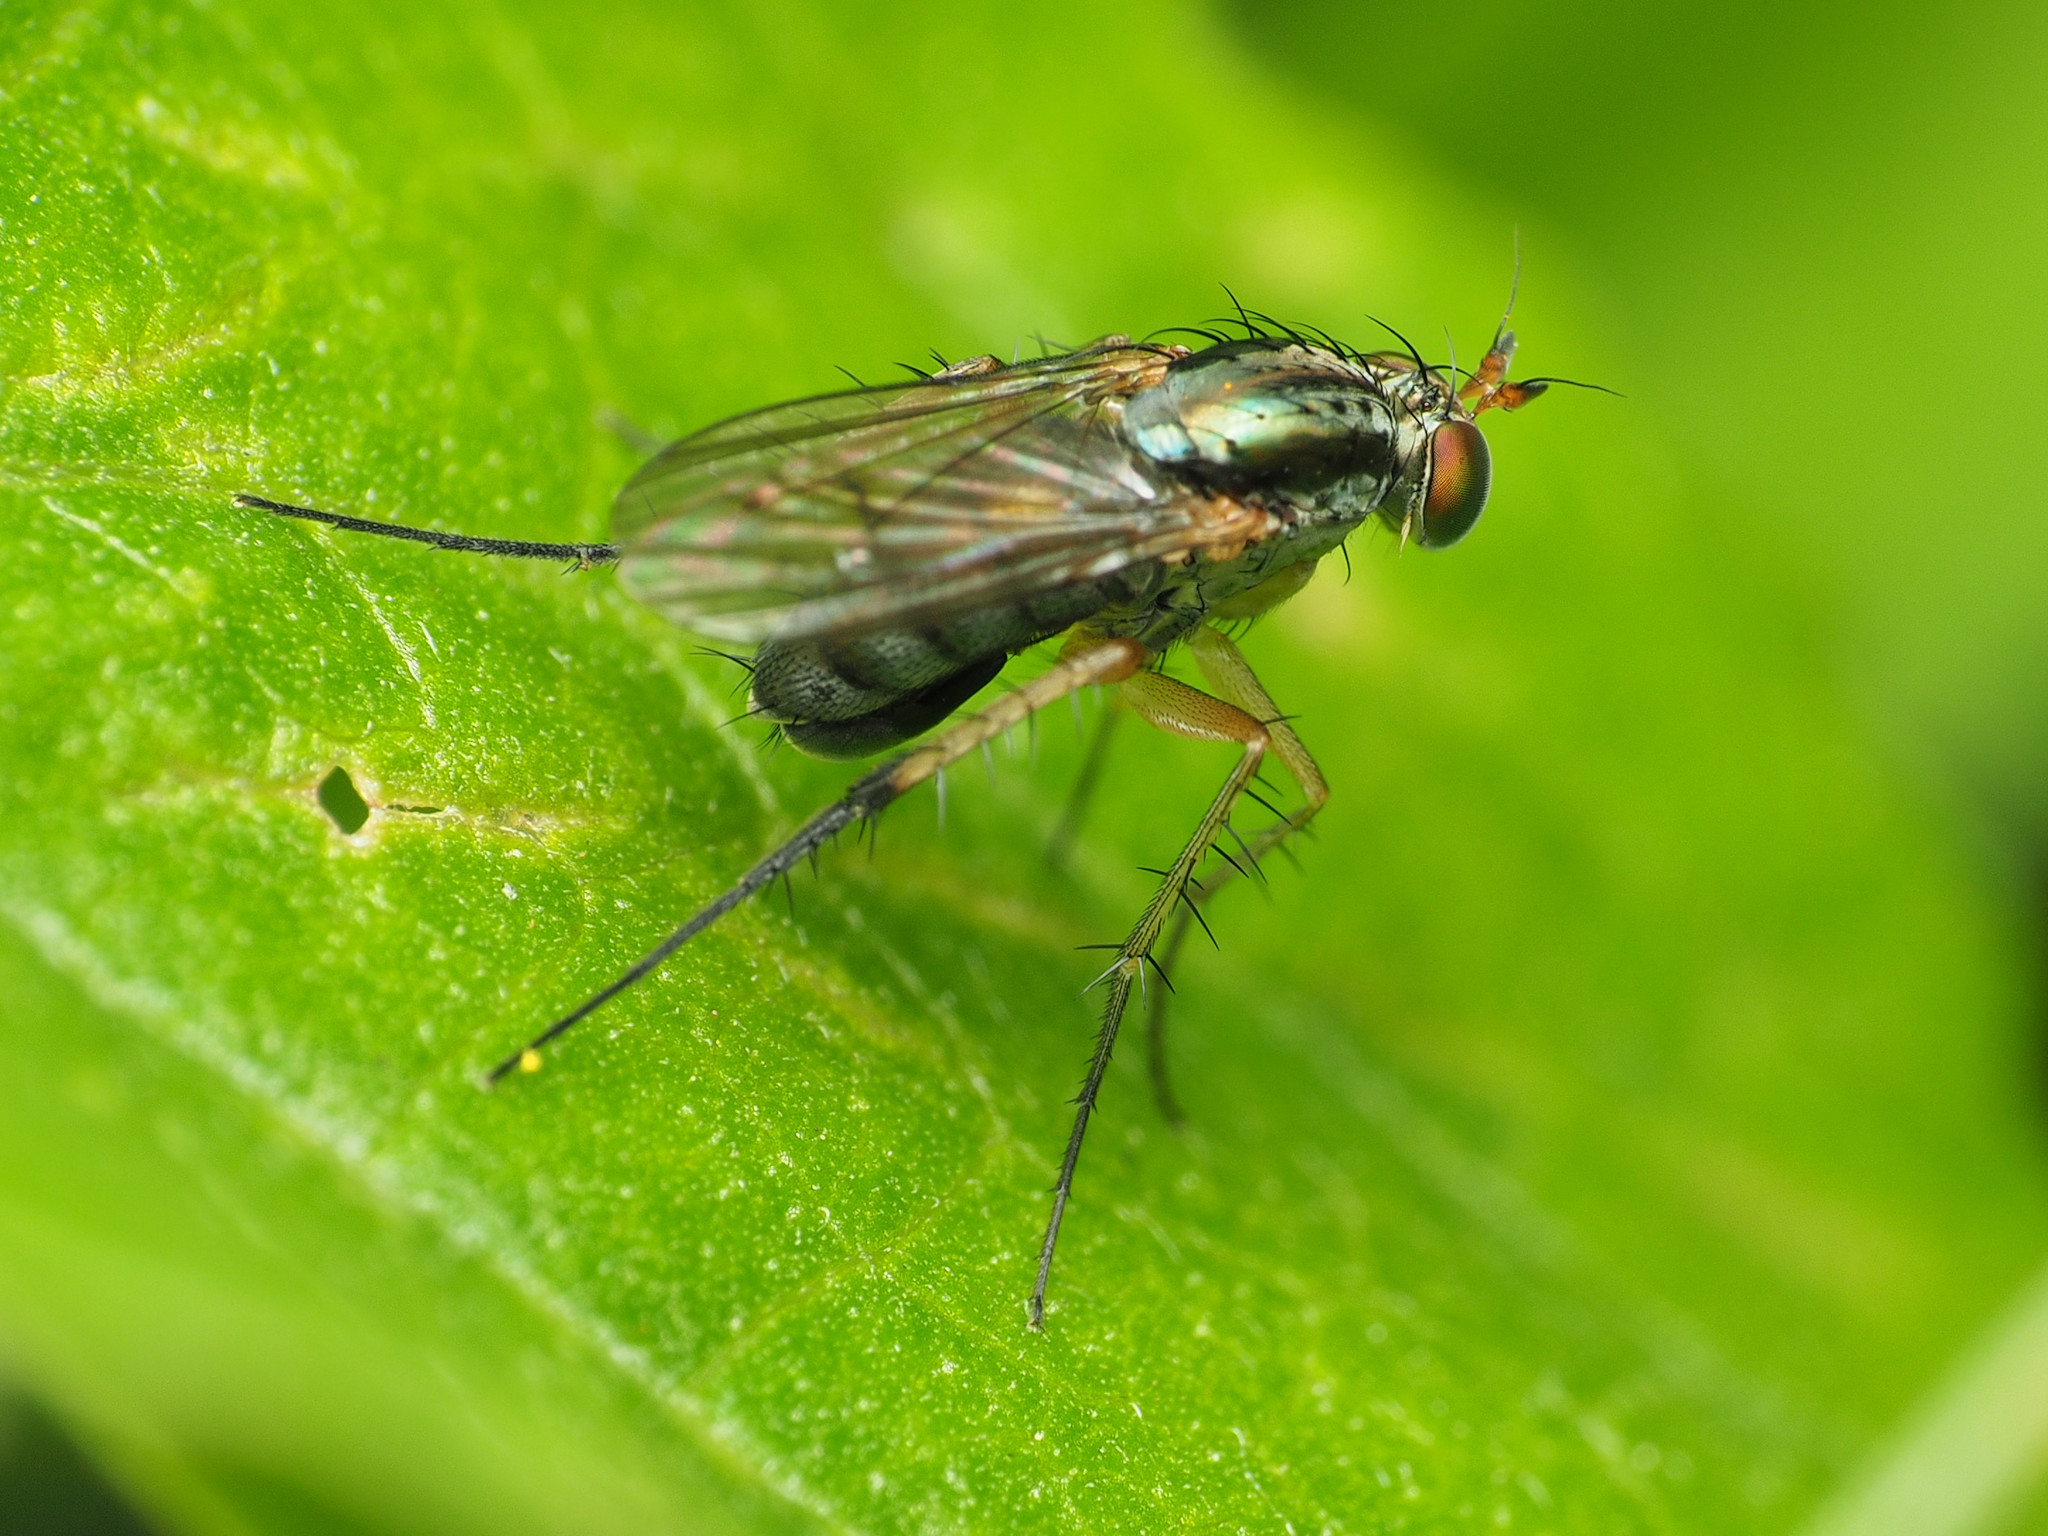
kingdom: Animalia
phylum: Arthropoda
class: Insecta
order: Diptera
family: Dolichopodidae
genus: Dolichopus
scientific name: Dolichopus reflectus
